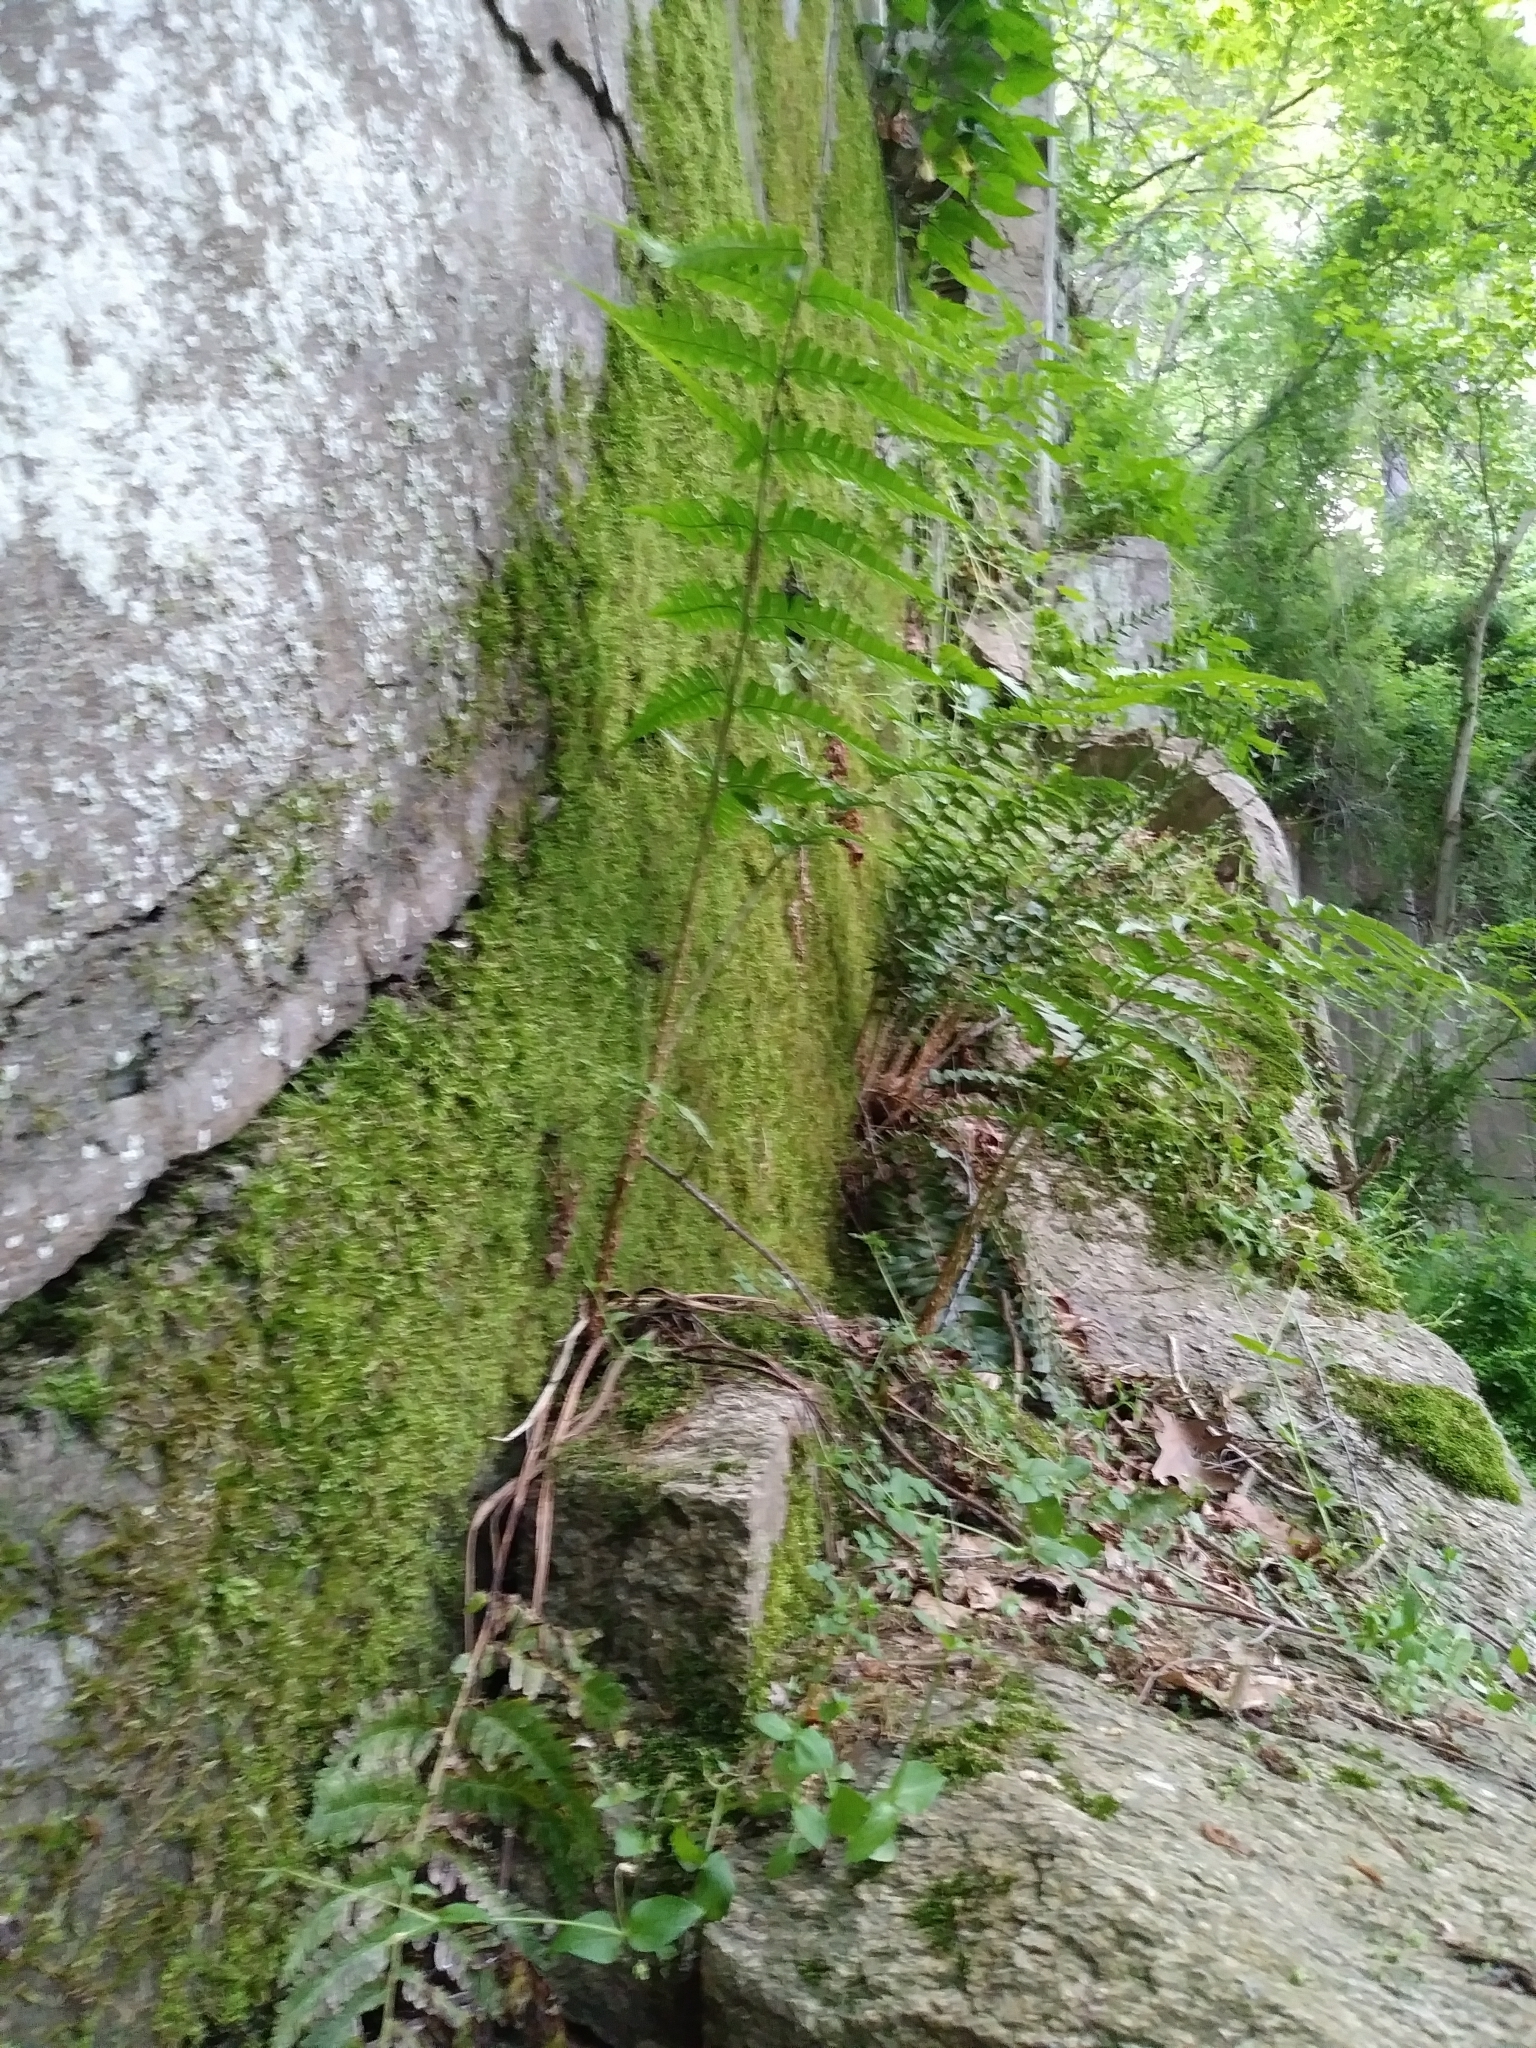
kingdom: Plantae
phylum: Tracheophyta
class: Polypodiopsida
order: Polypodiales
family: Dryopteridaceae
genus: Dryopteris
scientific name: Dryopteris leedsii
